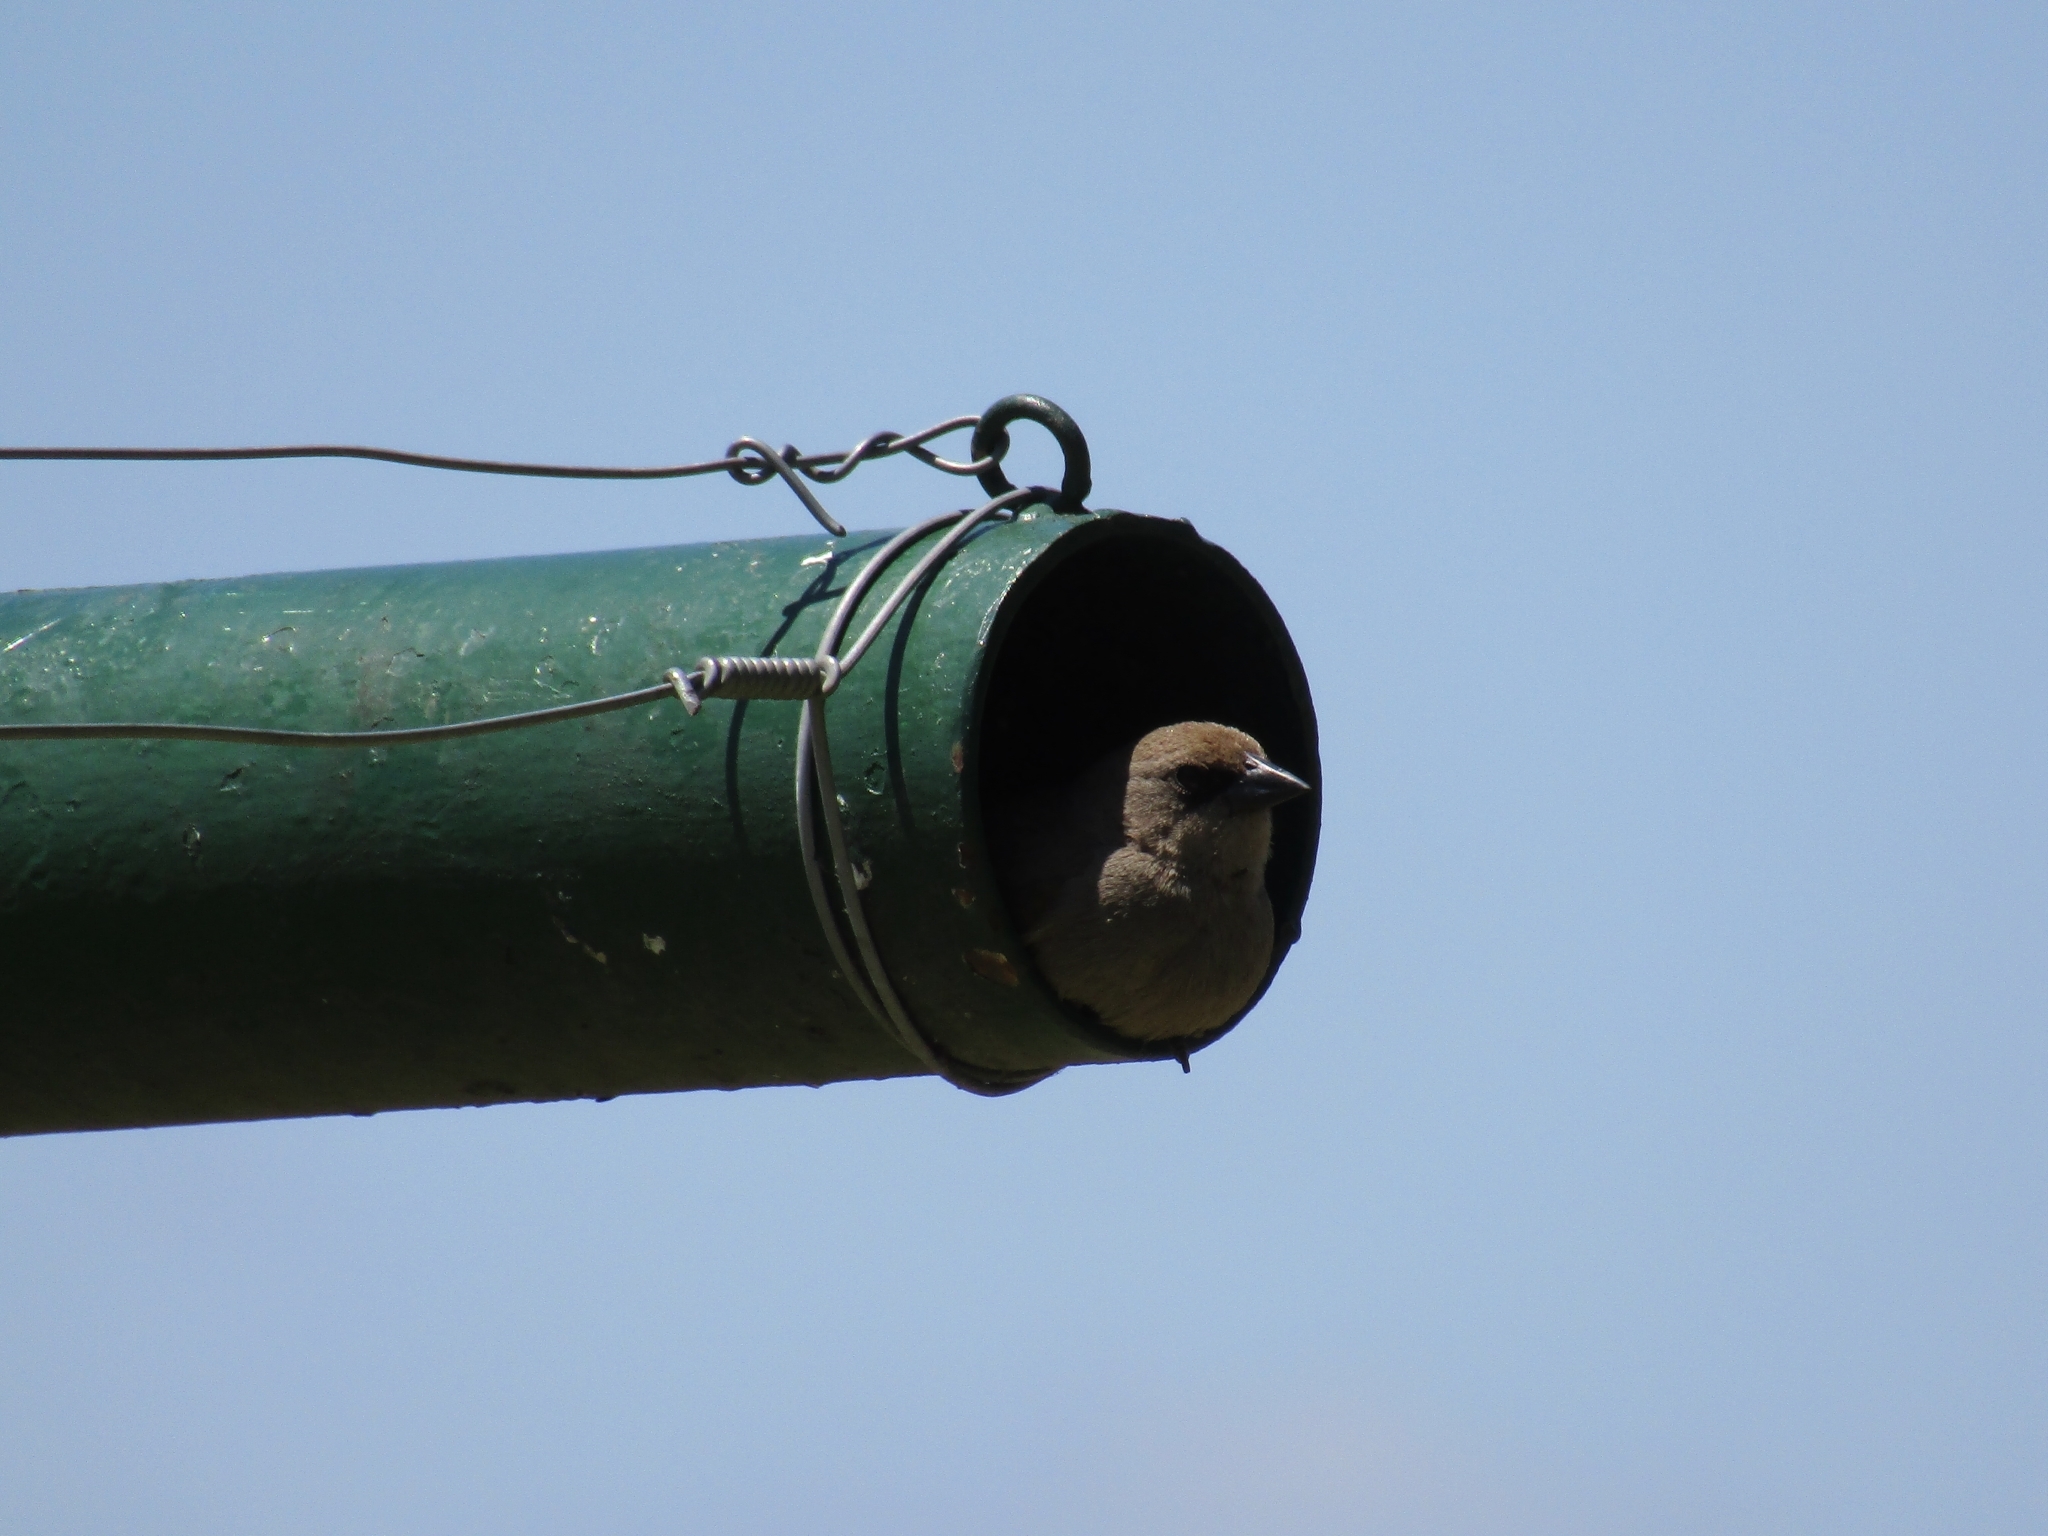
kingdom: Animalia
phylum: Chordata
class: Aves
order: Passeriformes
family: Icteridae
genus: Agelaioides
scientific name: Agelaioides badius
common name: Baywing
